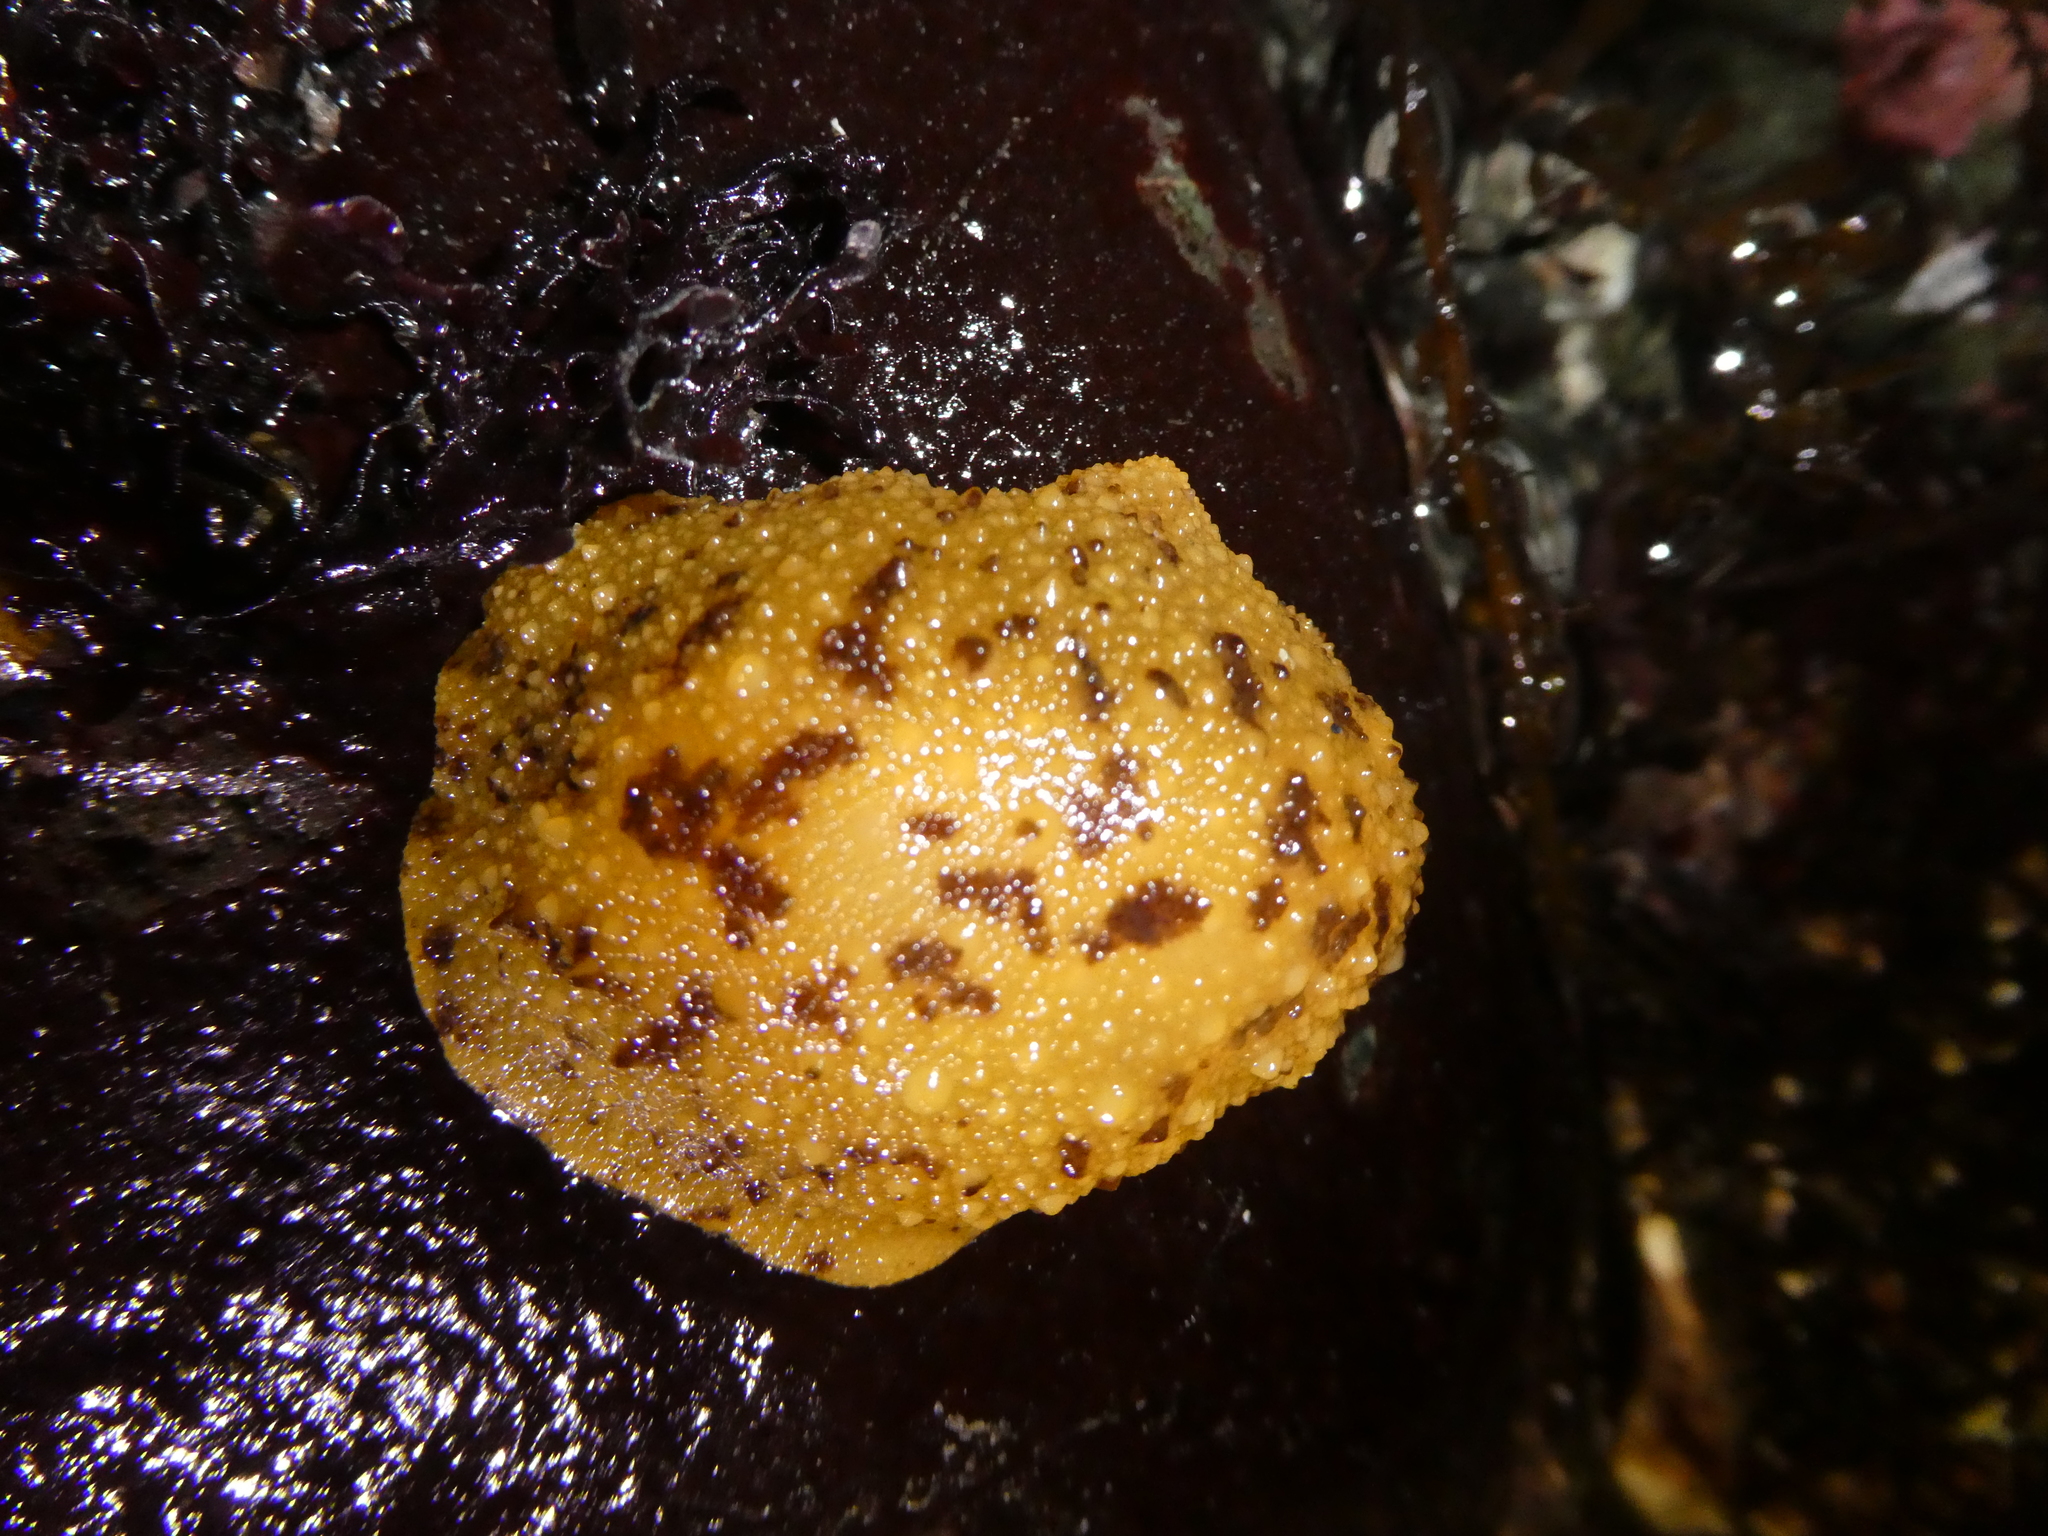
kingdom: Animalia
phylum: Mollusca
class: Gastropoda
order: Nudibranchia
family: Dorididae
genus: Doris
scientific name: Doris montereyensis
